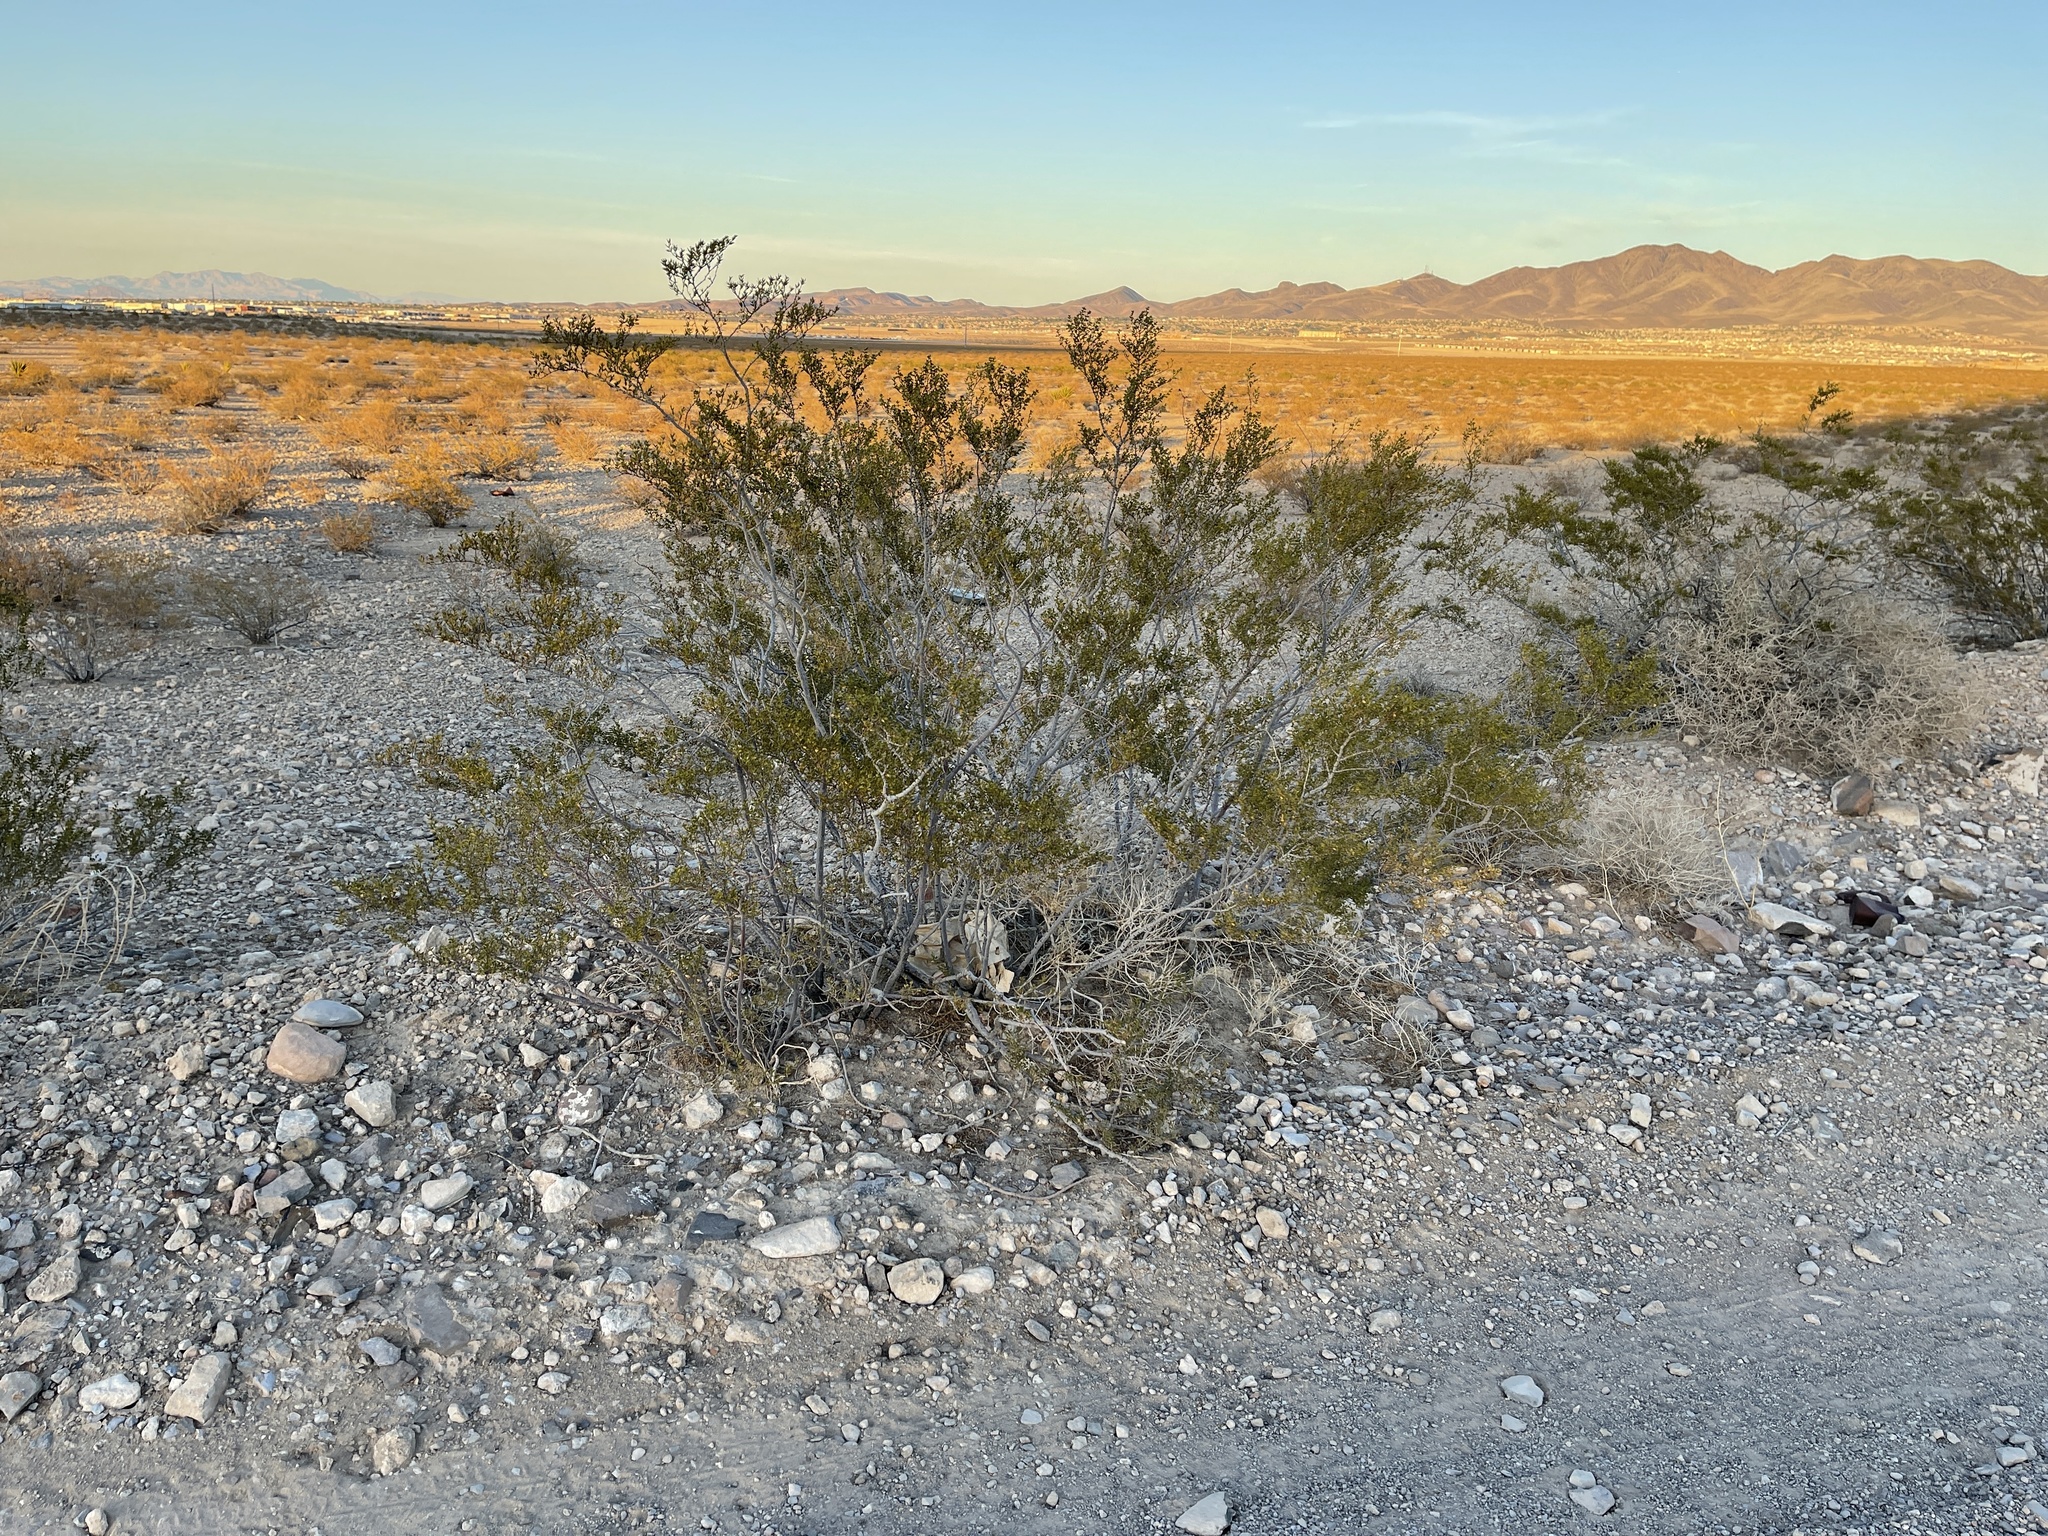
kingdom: Plantae
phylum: Tracheophyta
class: Magnoliopsida
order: Zygophyllales
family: Zygophyllaceae
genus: Larrea
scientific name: Larrea tridentata
